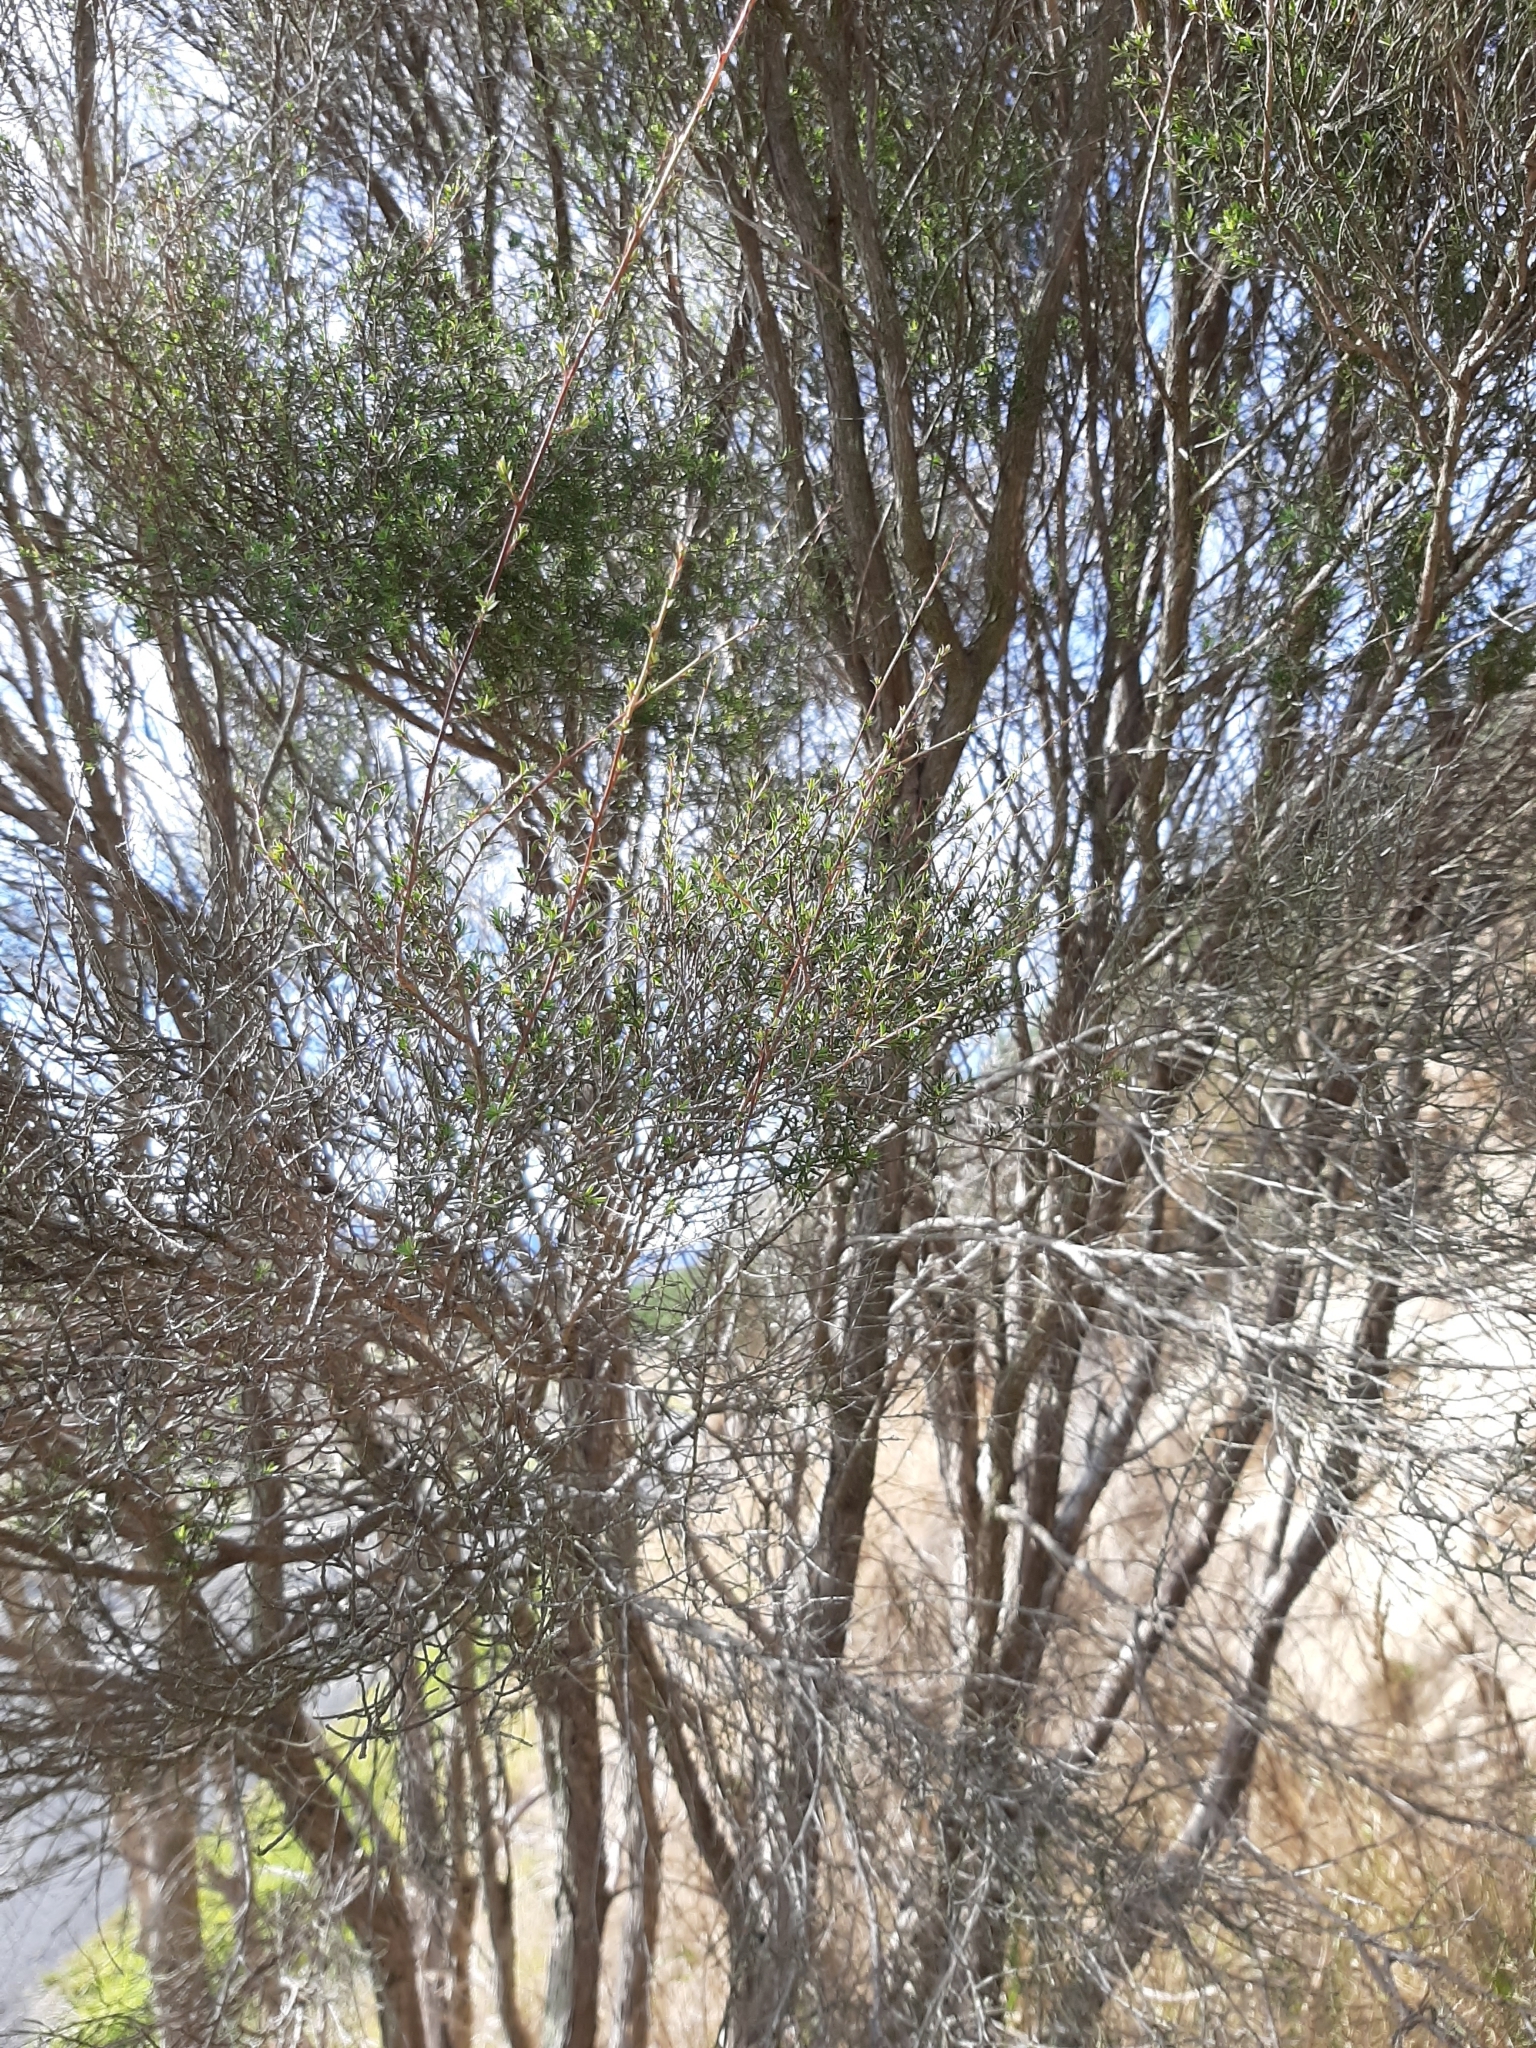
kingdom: Plantae
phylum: Tracheophyta
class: Magnoliopsida
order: Myrtales
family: Myrtaceae
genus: Kunzea
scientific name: Kunzea robusta
